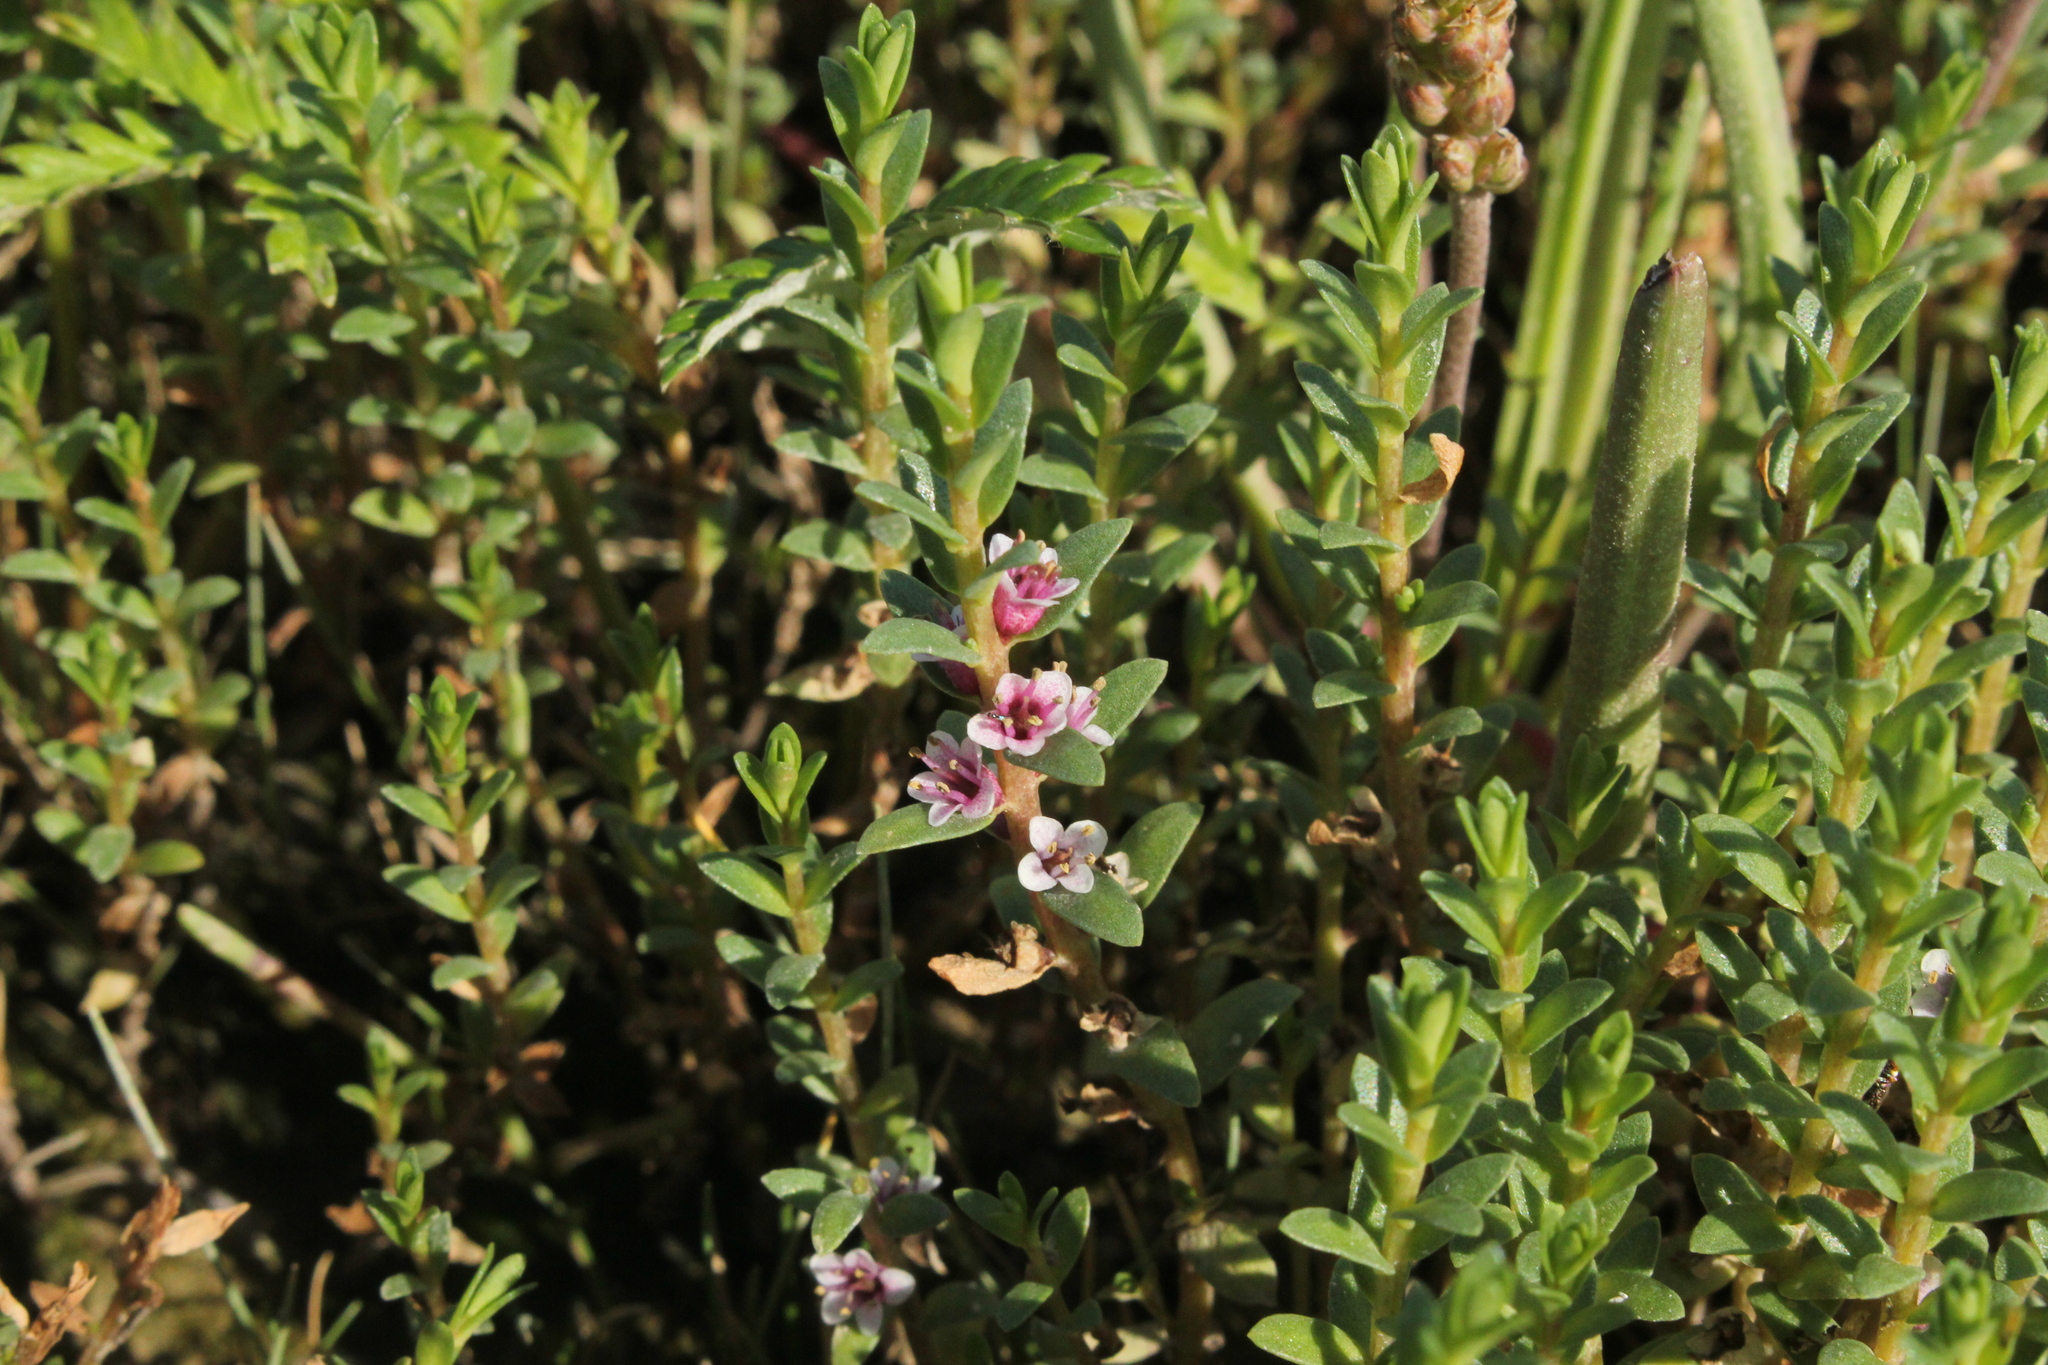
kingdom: Plantae
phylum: Tracheophyta
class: Magnoliopsida
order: Ericales
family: Primulaceae
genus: Lysimachia
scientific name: Lysimachia maritima
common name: Sea milkwort
